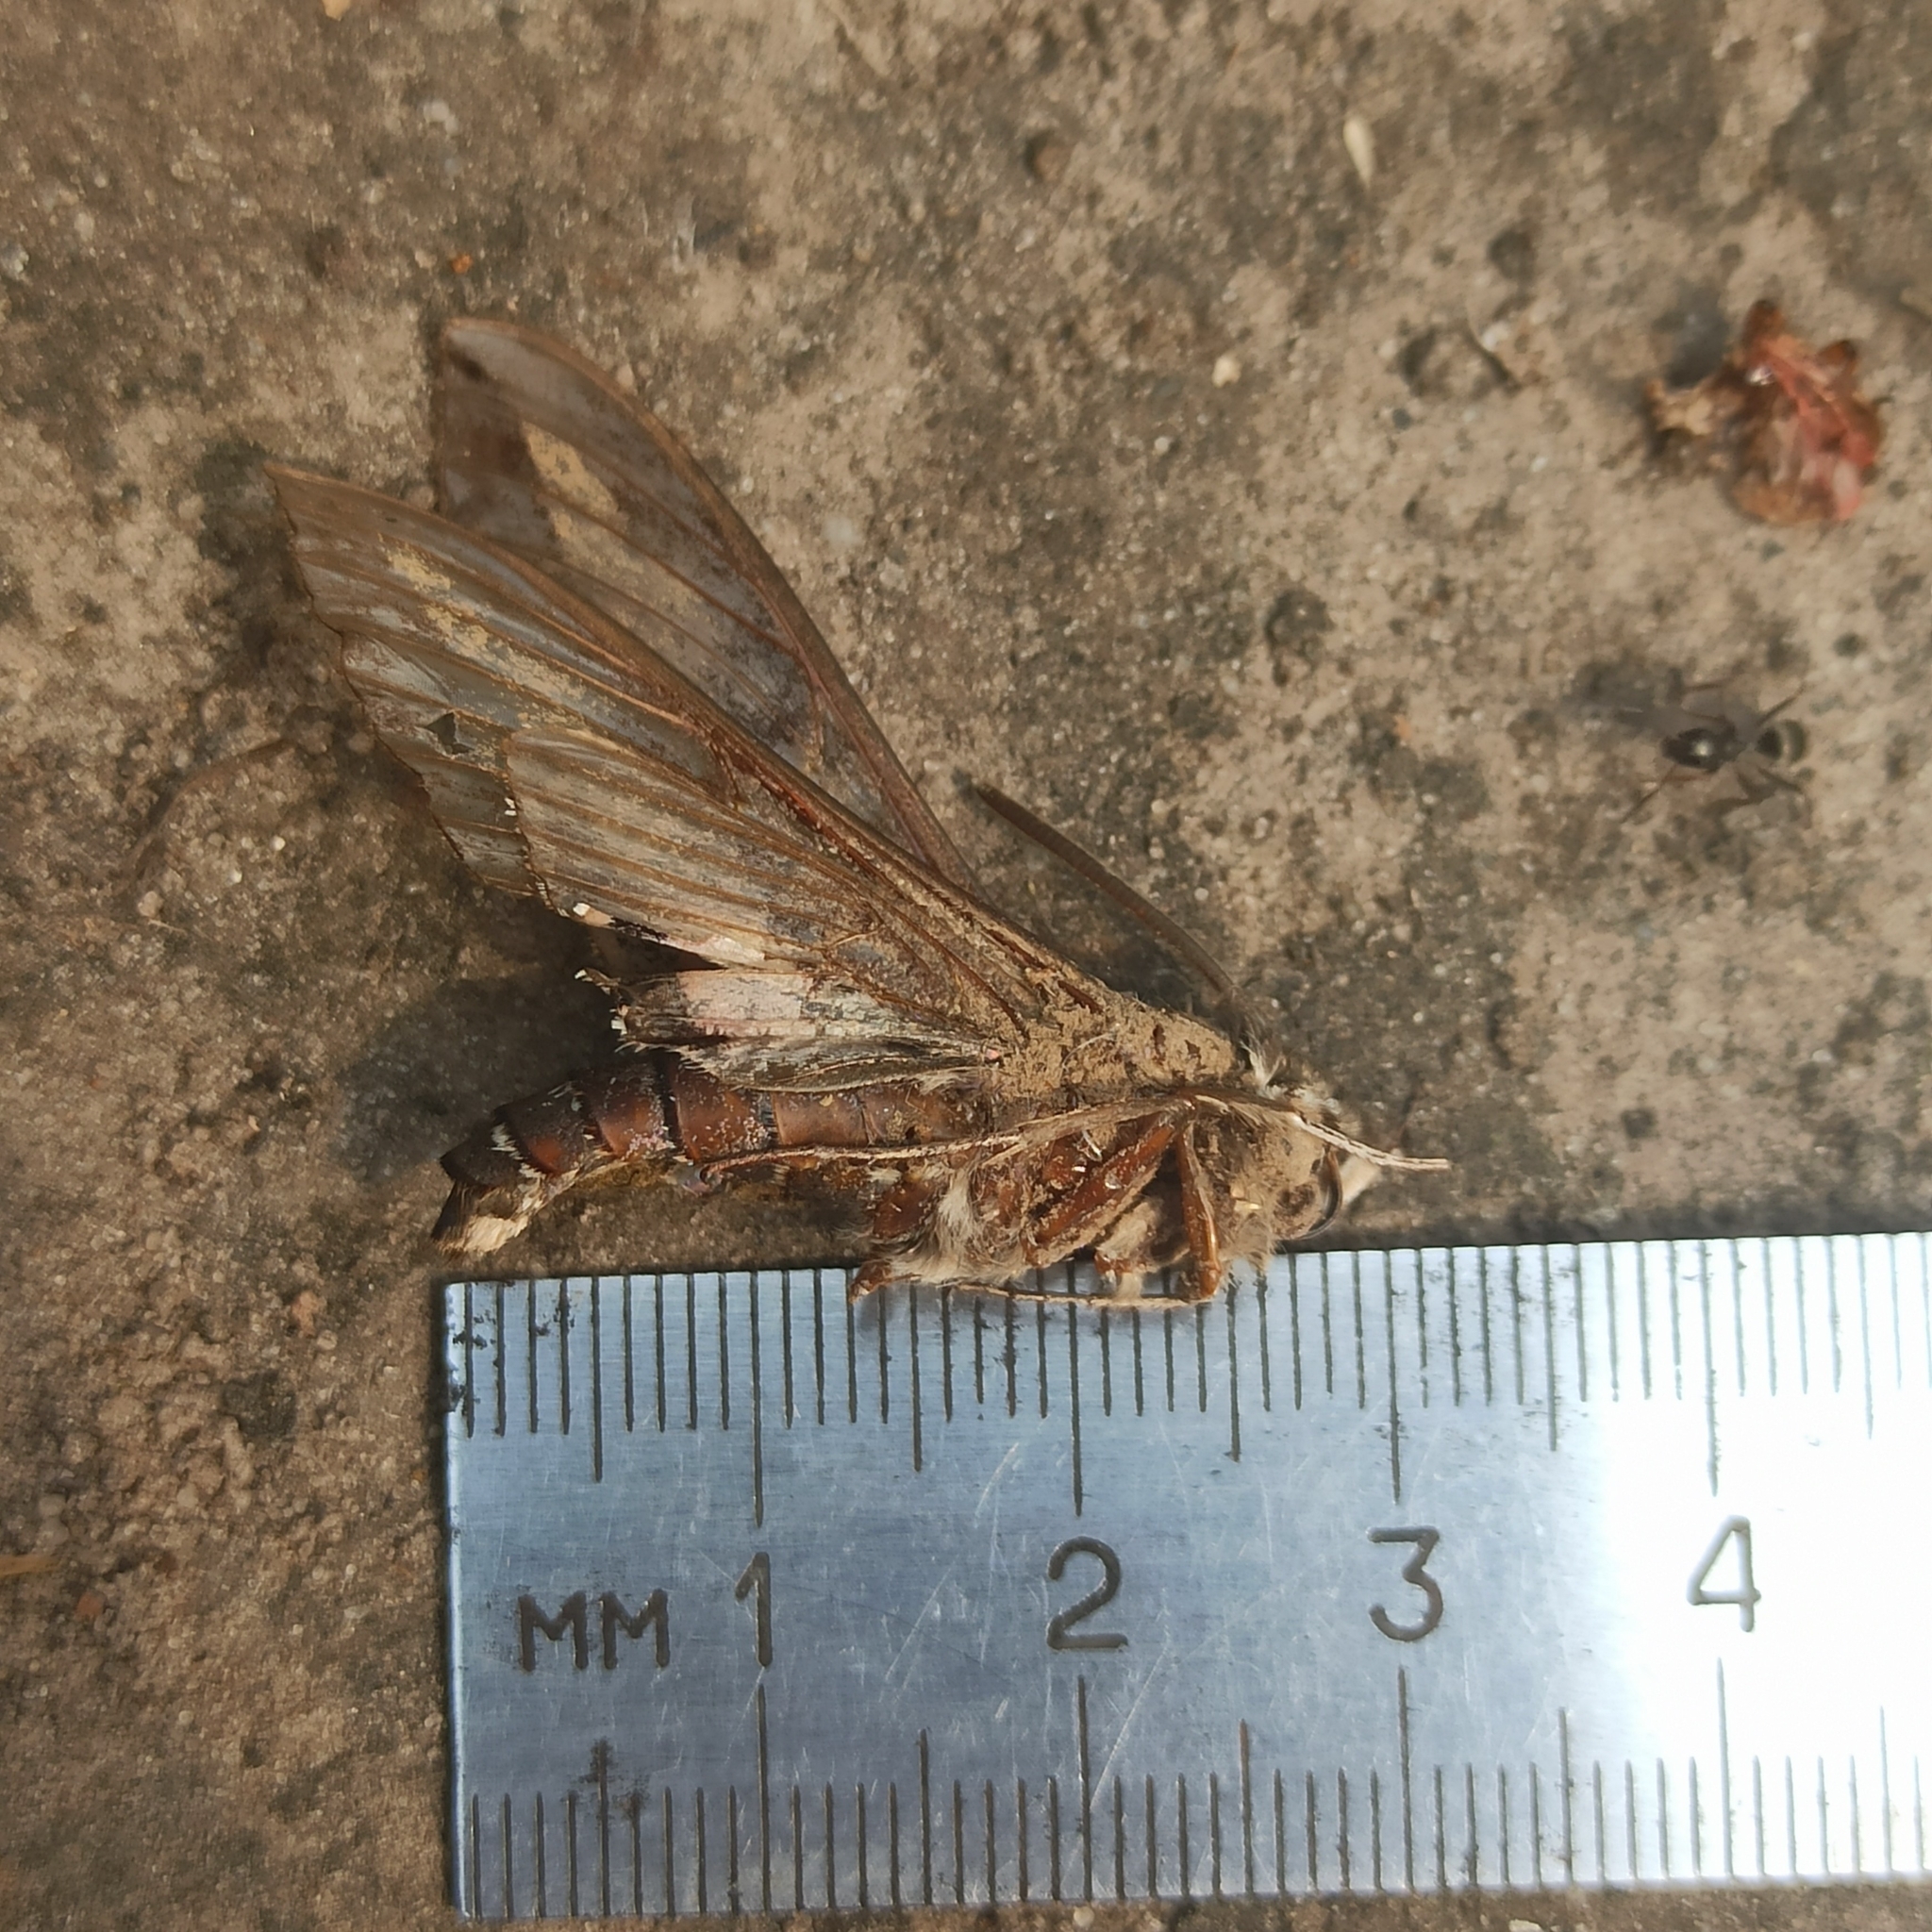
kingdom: Animalia
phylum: Arthropoda
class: Insecta
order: Lepidoptera
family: Sphingidae
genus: Hyles
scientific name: Hyles gallii
